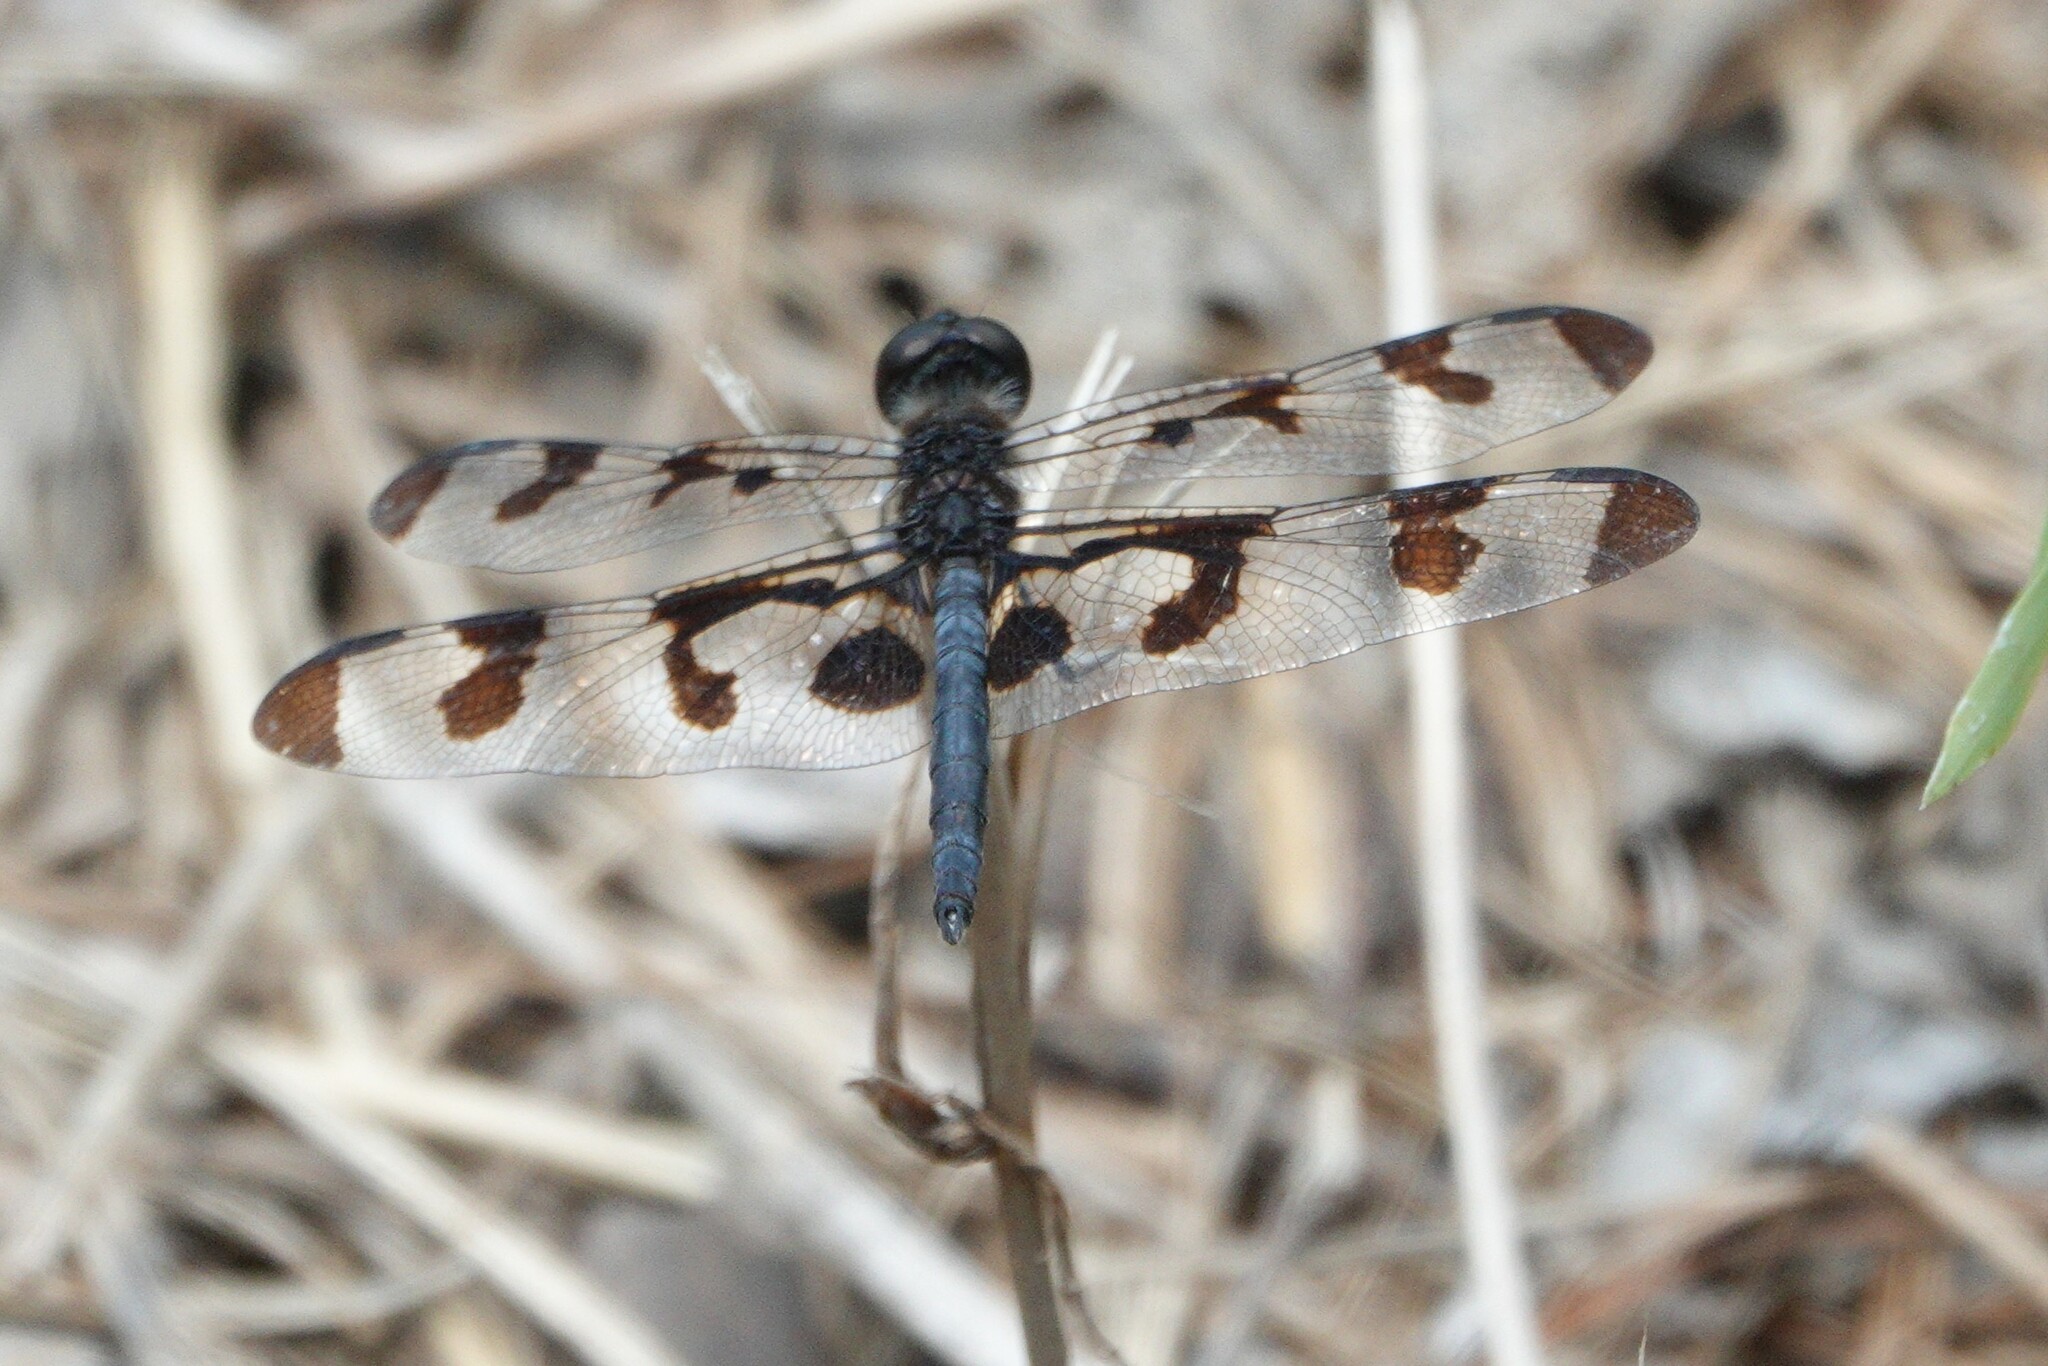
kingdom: Animalia
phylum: Arthropoda
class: Insecta
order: Odonata
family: Libellulidae
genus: Celithemis
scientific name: Celithemis fasciata
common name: Banded pennant
